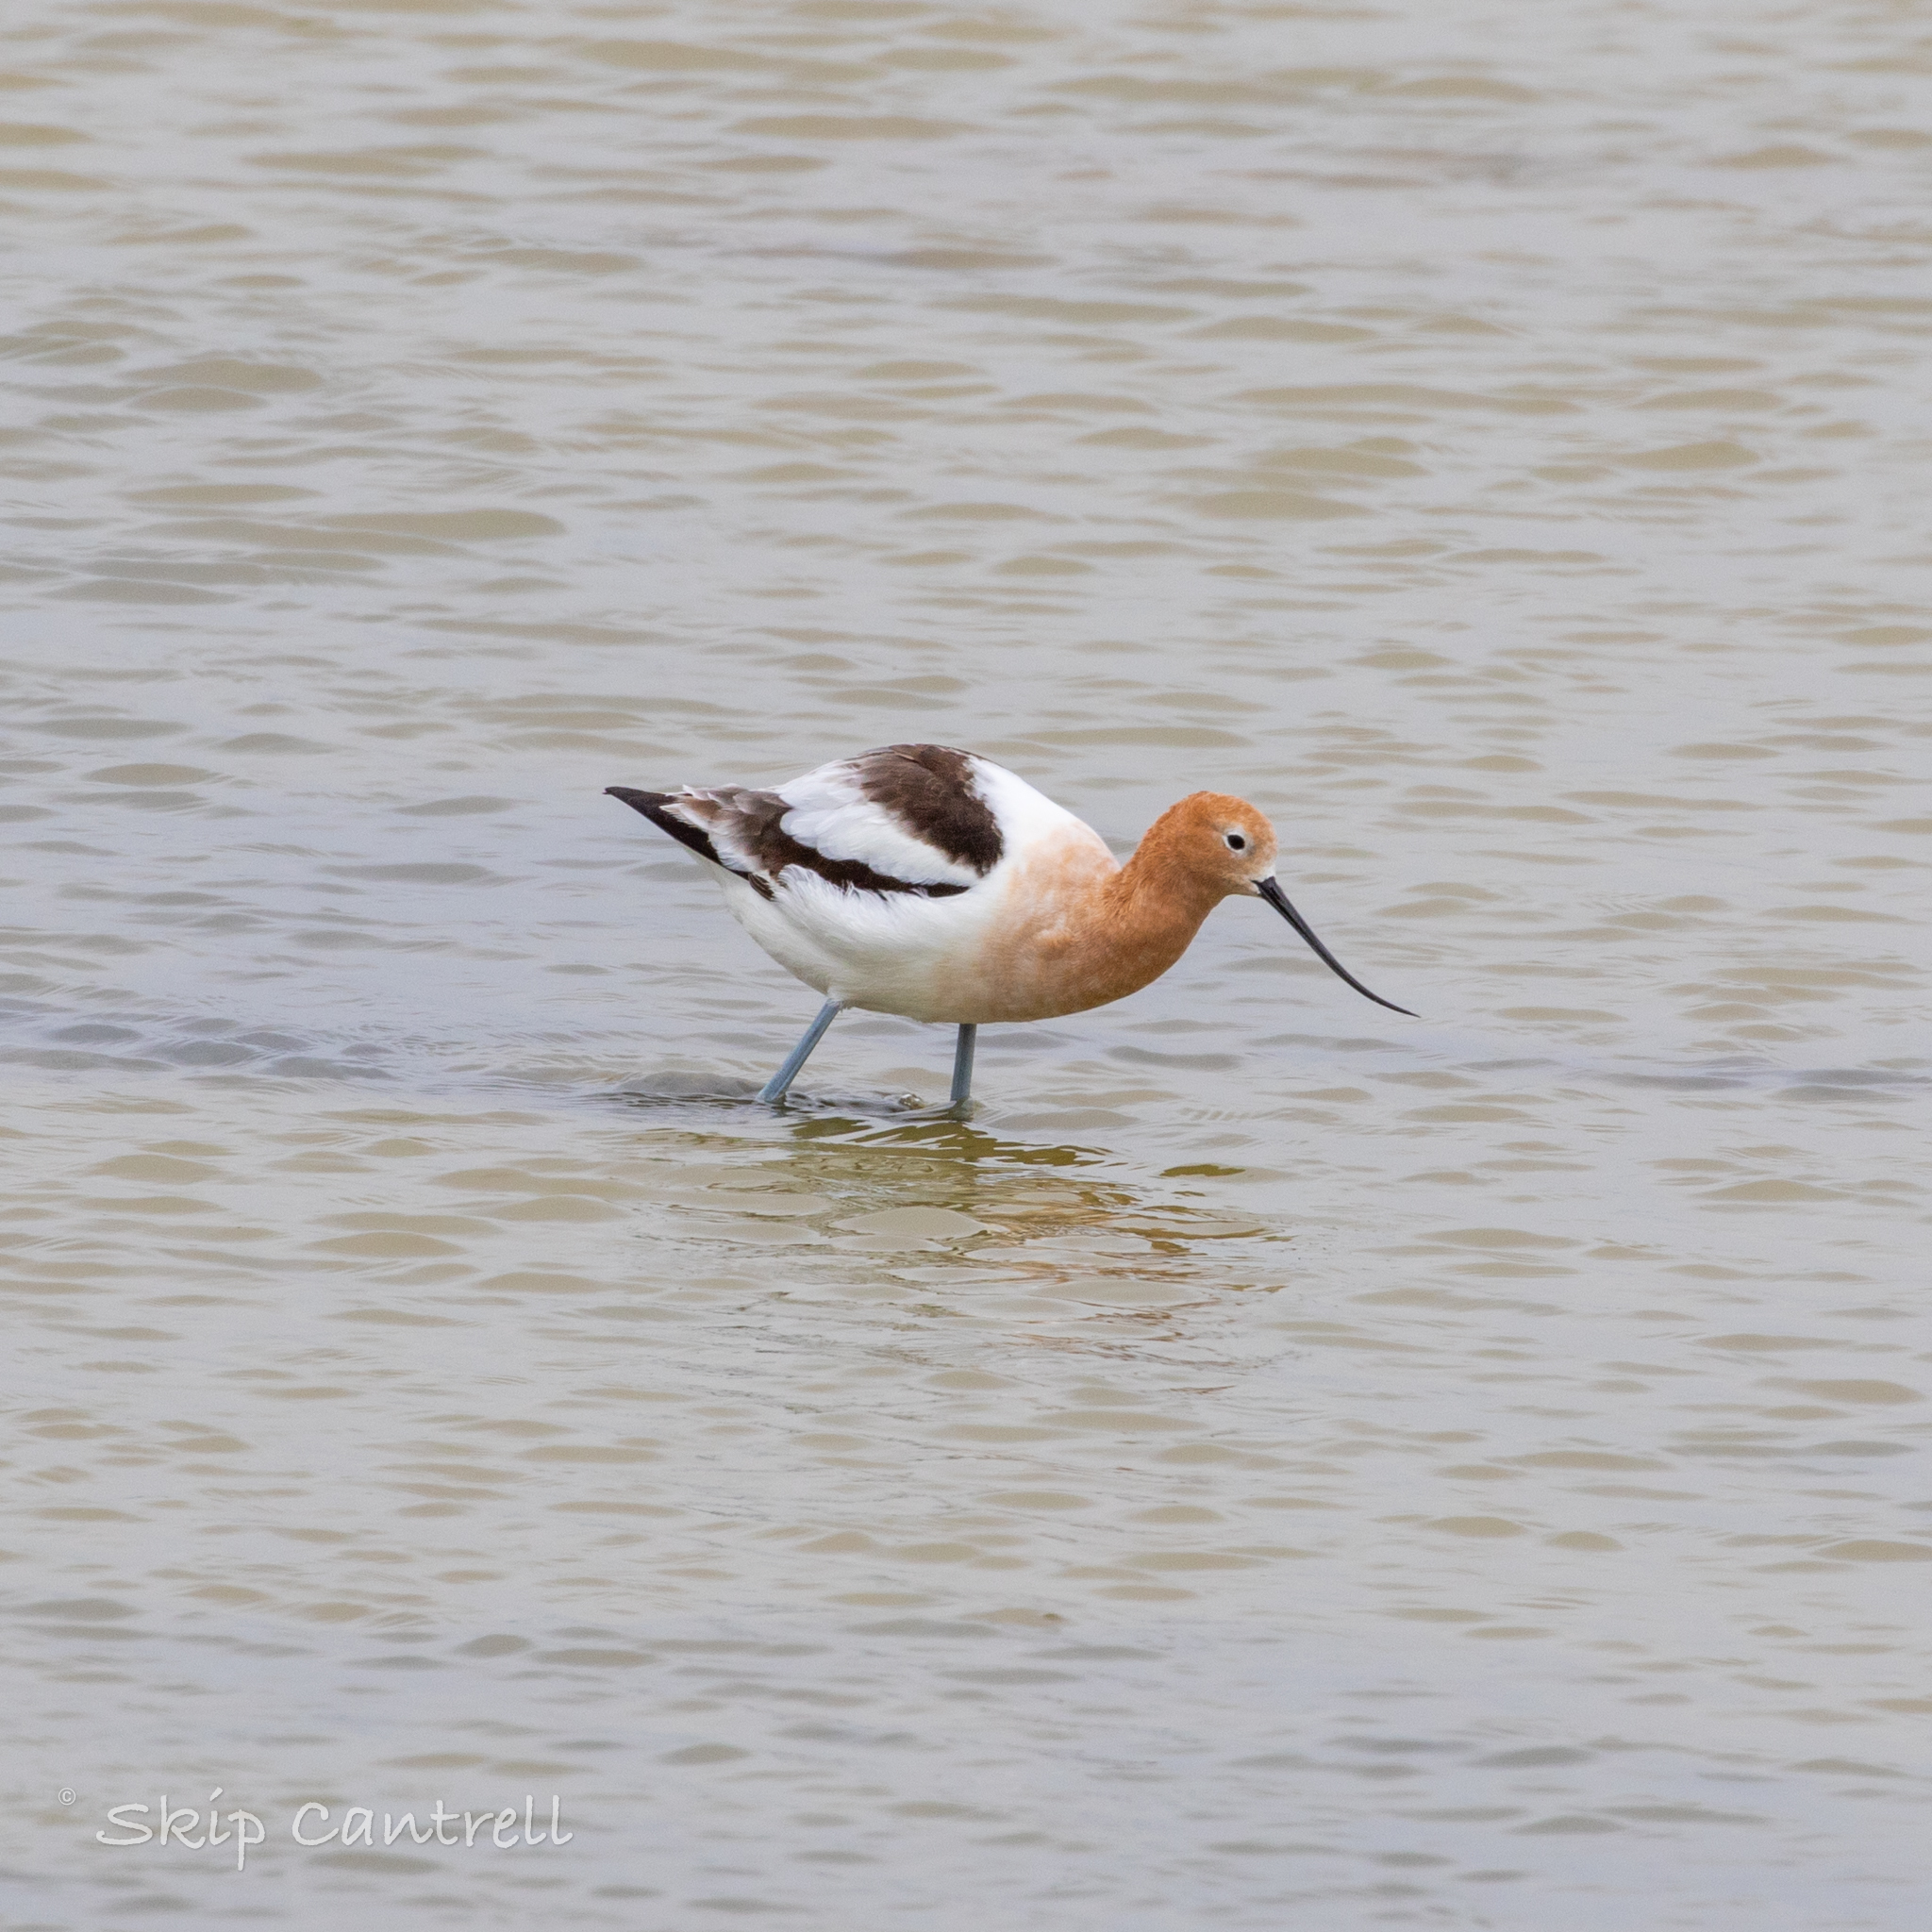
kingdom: Animalia
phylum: Chordata
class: Aves
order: Charadriiformes
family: Recurvirostridae
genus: Recurvirostra
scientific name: Recurvirostra americana
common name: American avocet
